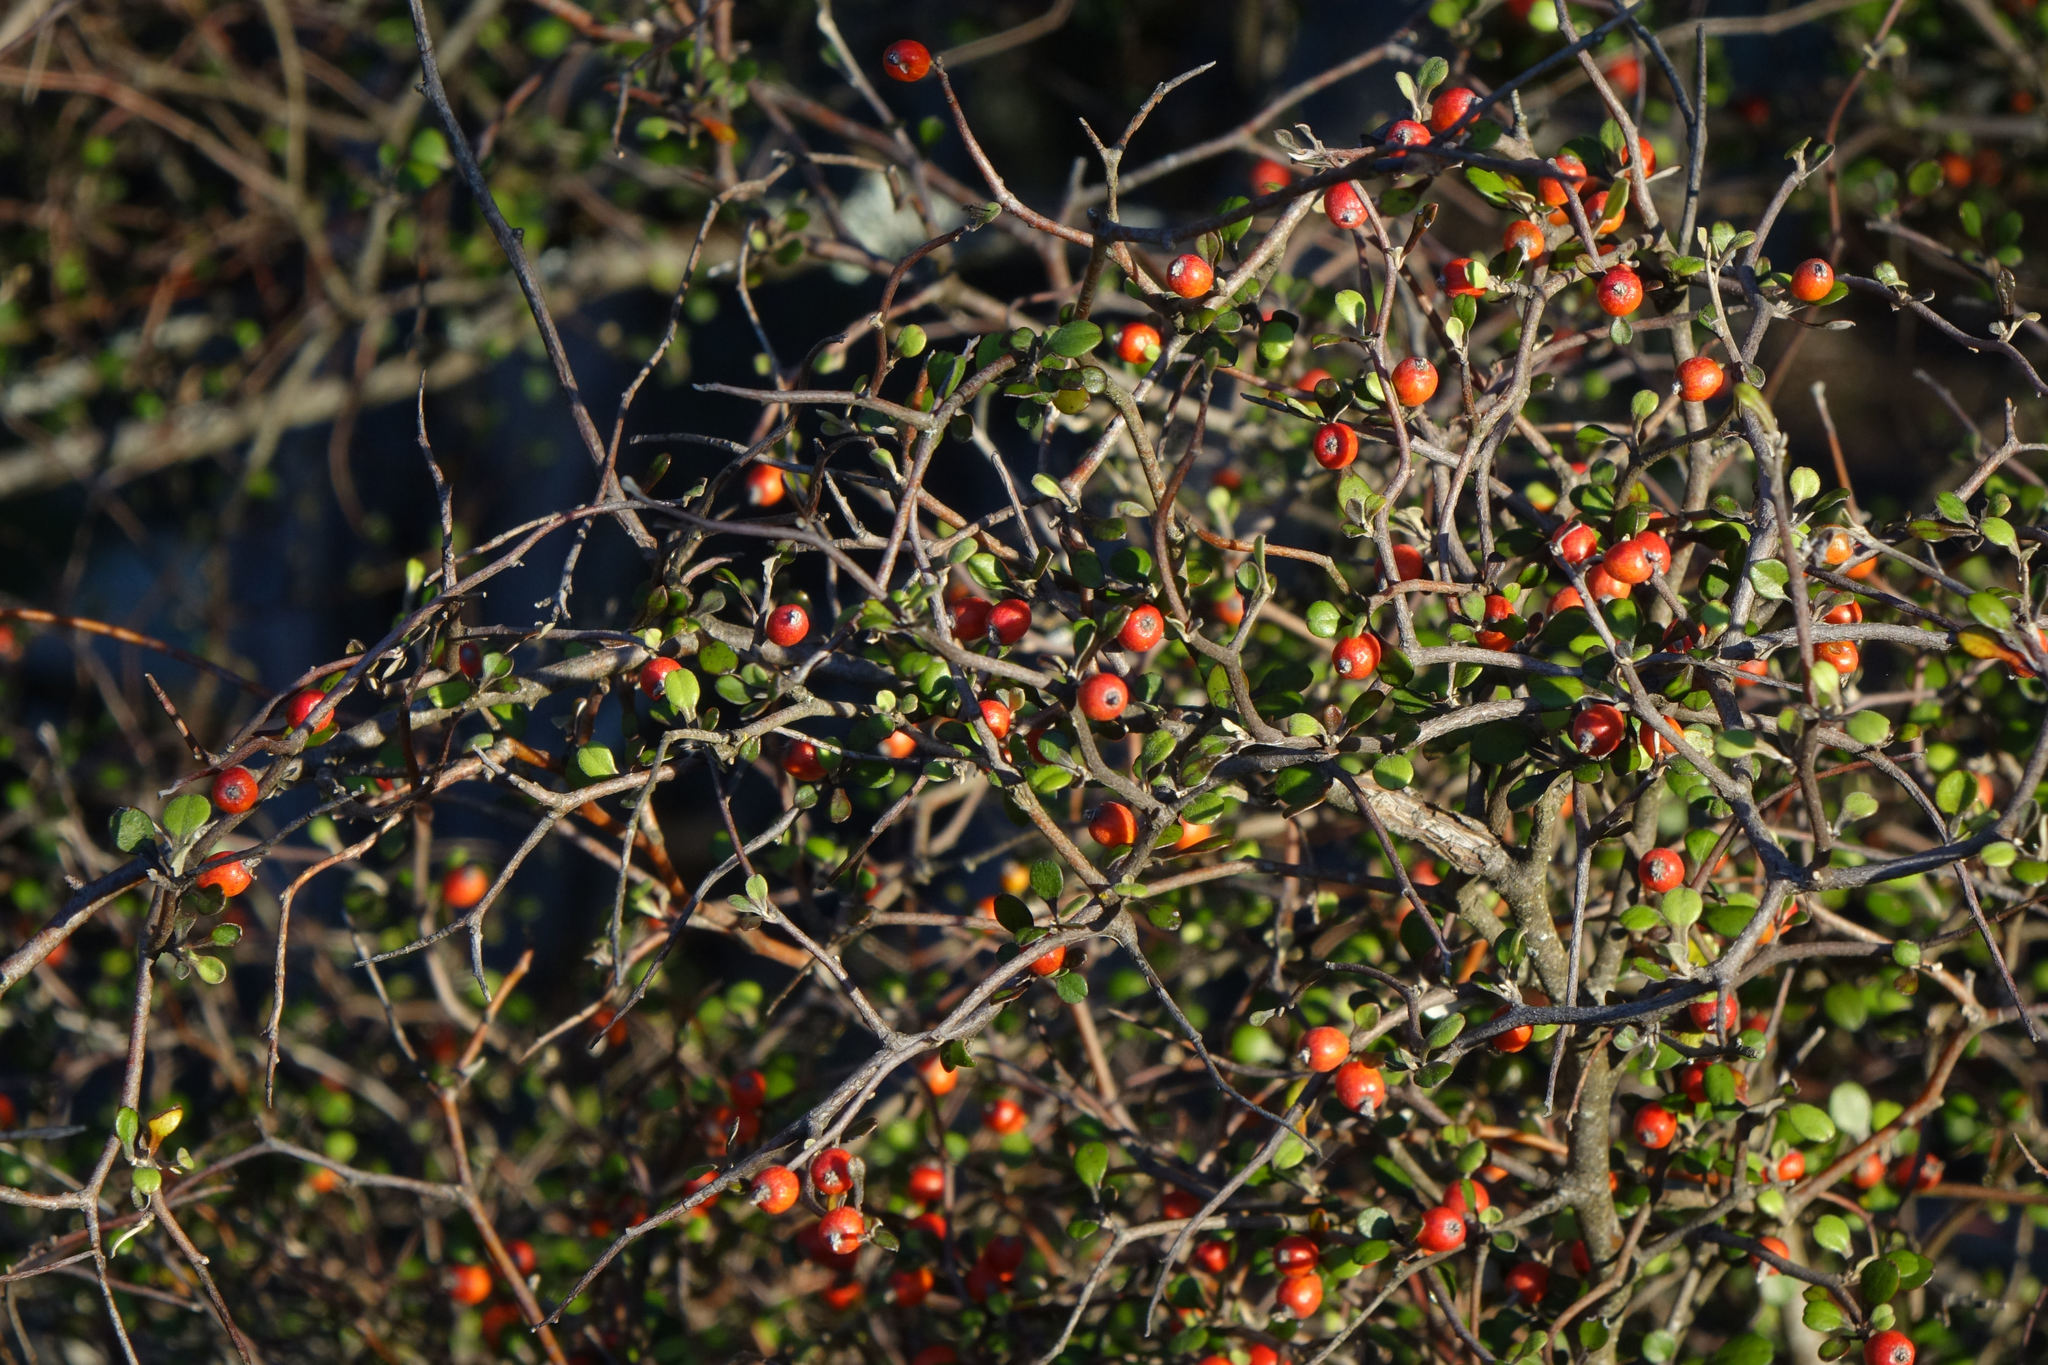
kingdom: Plantae
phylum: Tracheophyta
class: Magnoliopsida
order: Asterales
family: Argophyllaceae
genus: Corokia
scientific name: Corokia cotoneaster
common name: Wire nettingbush
